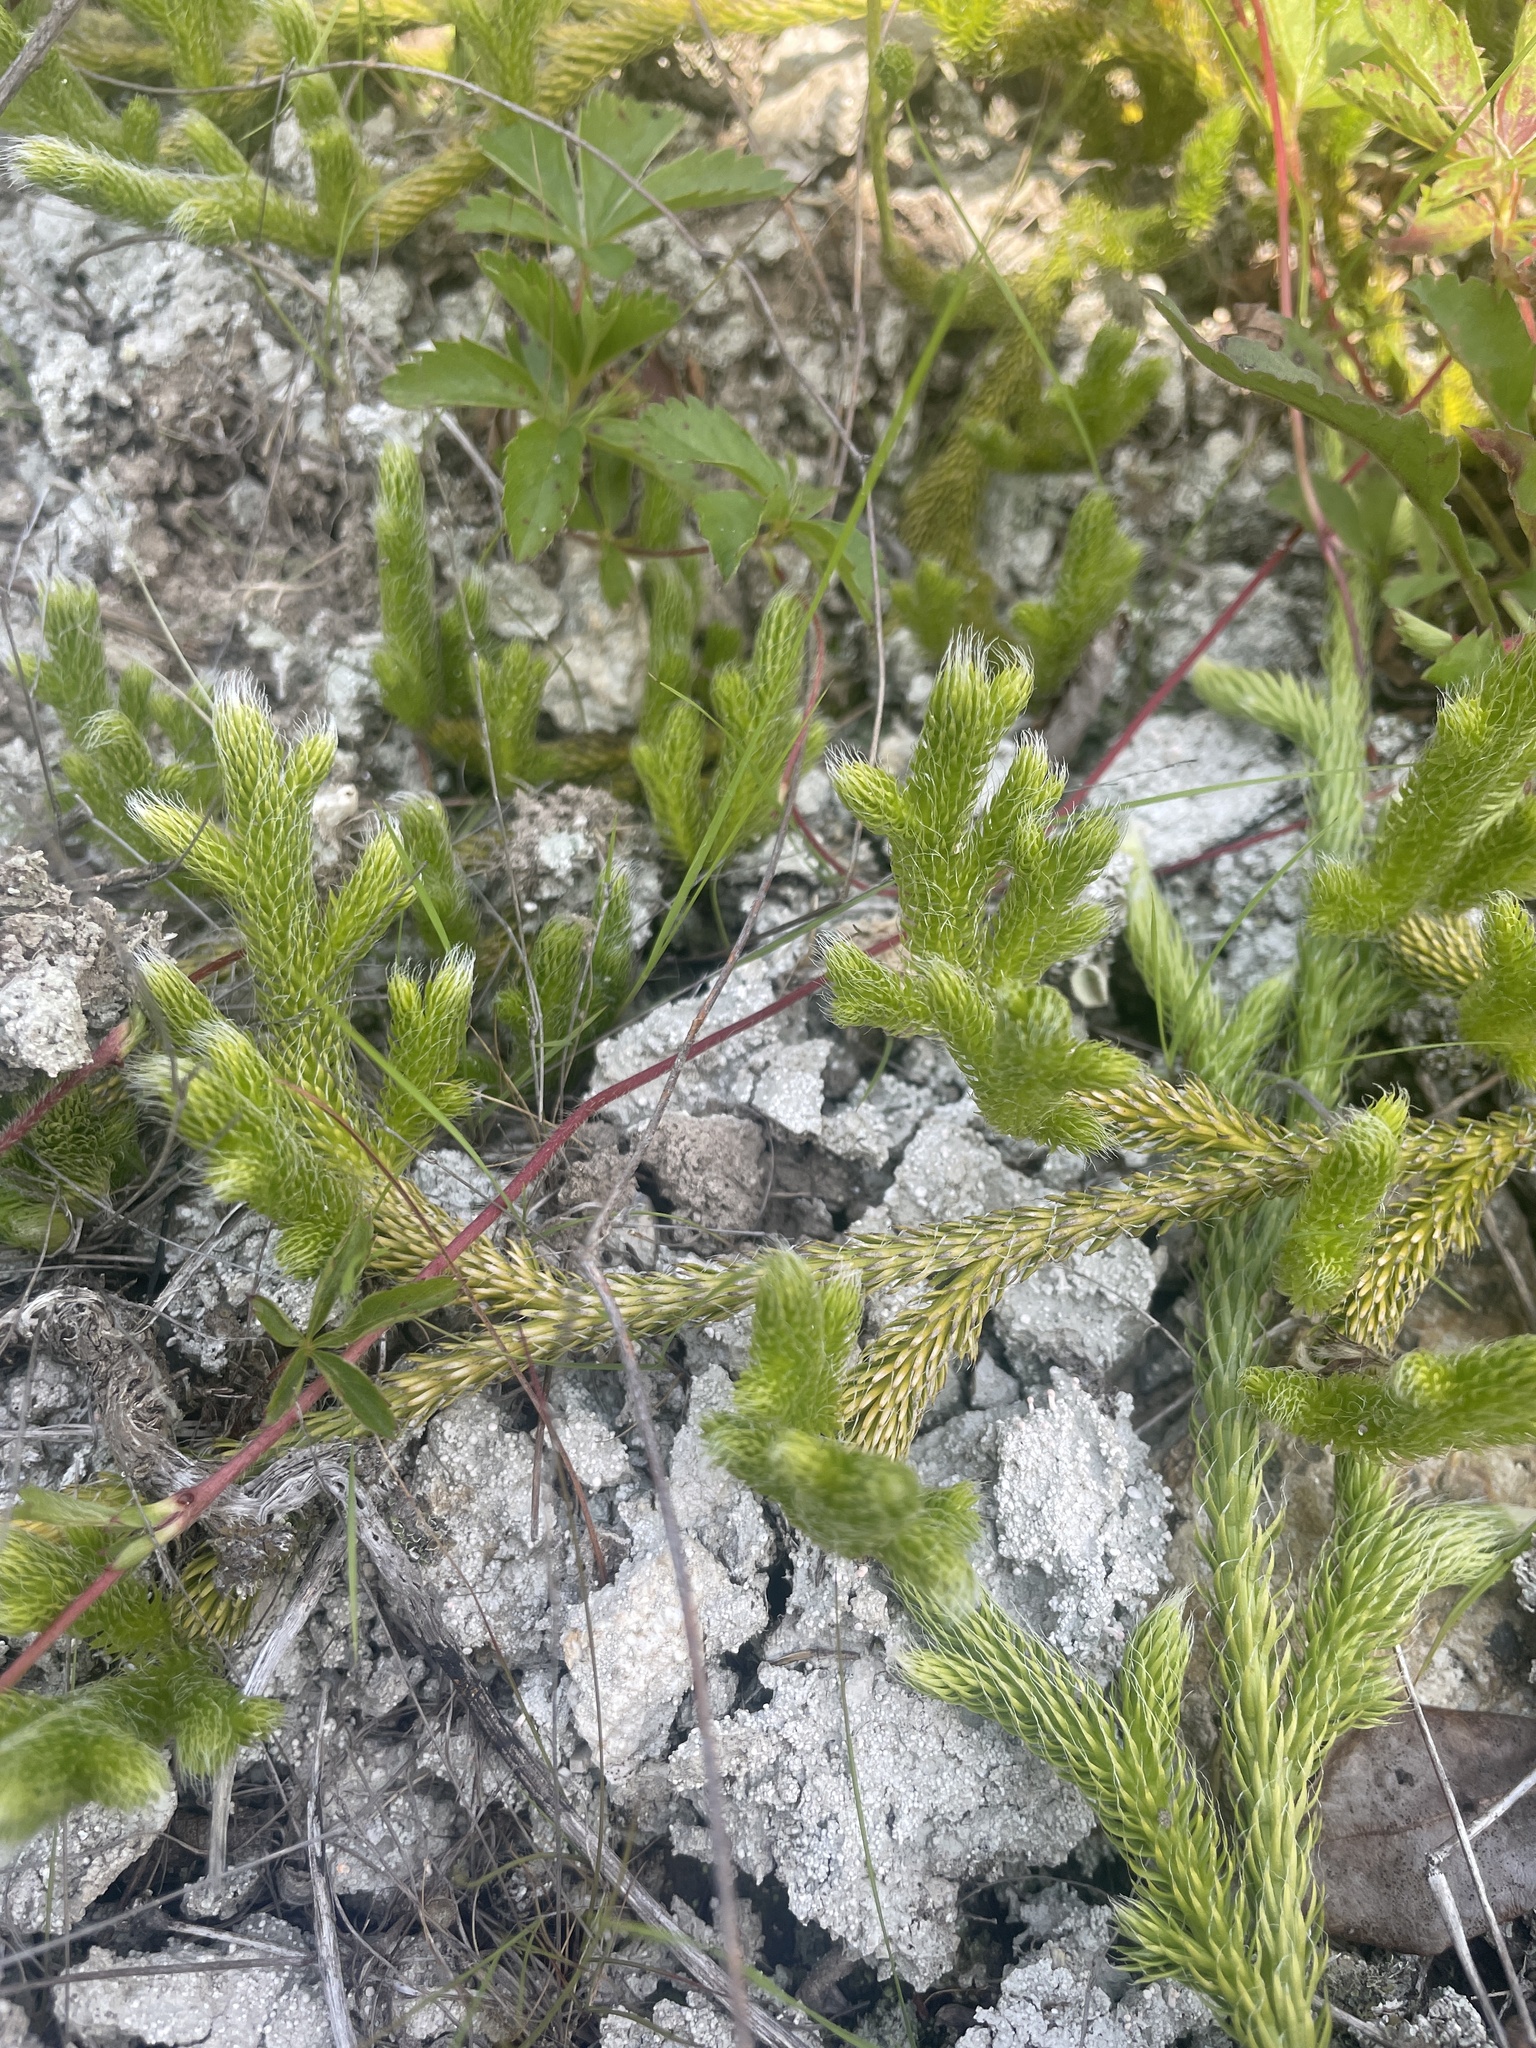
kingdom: Plantae
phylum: Tracheophyta
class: Lycopodiopsida
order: Lycopodiales
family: Lycopodiaceae
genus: Lycopodium
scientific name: Lycopodium clavatum
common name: Stag's-horn clubmoss
